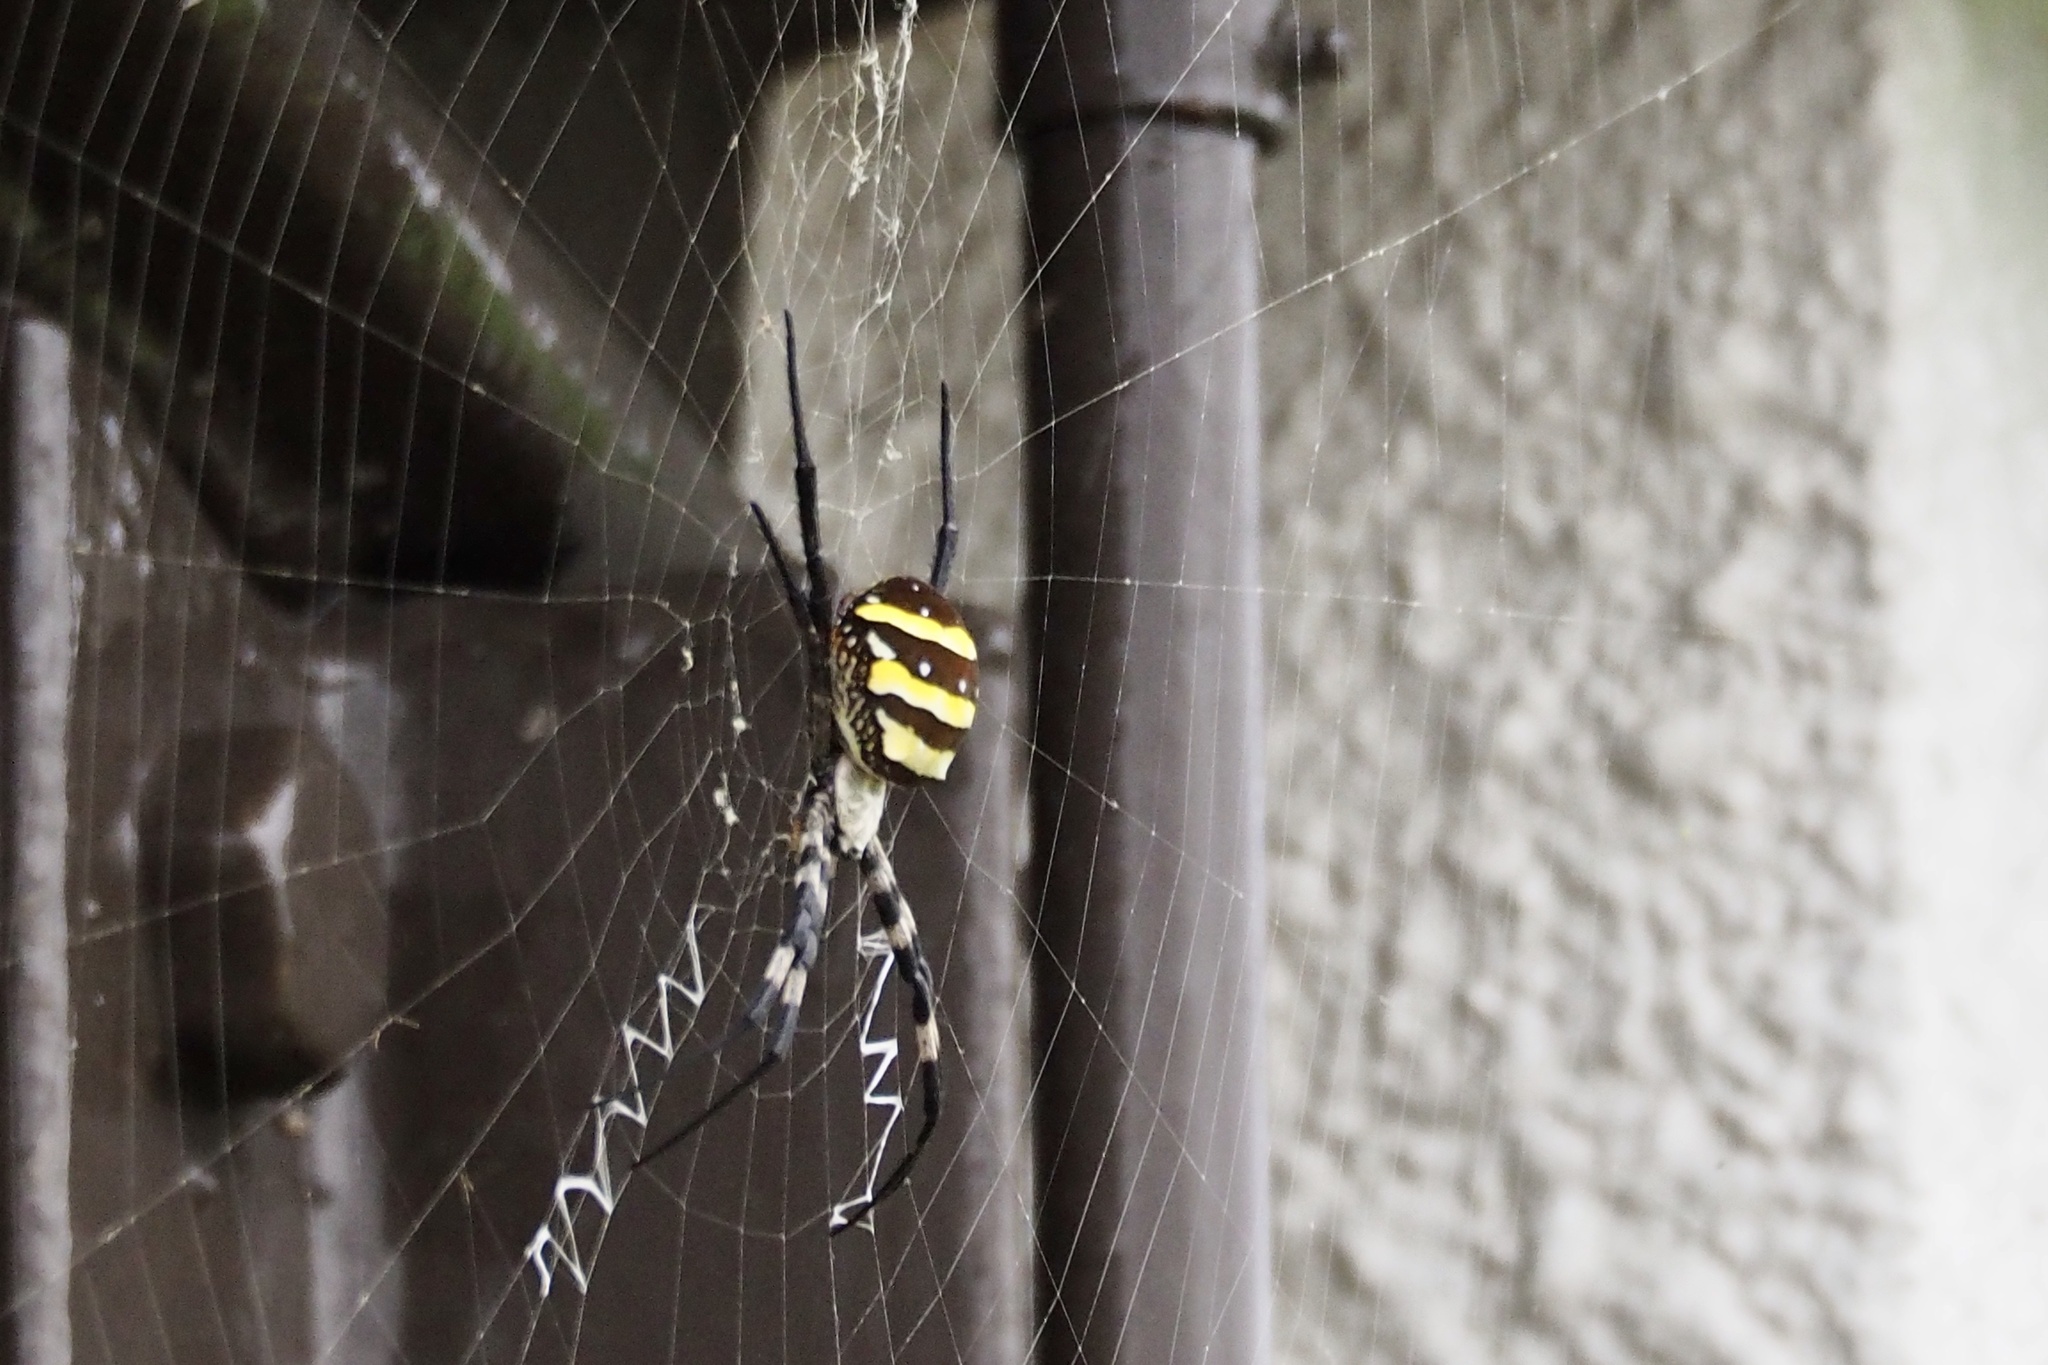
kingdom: Animalia
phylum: Arthropoda
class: Arachnida
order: Araneae
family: Araneidae
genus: Argiope
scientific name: Argiope amoena
